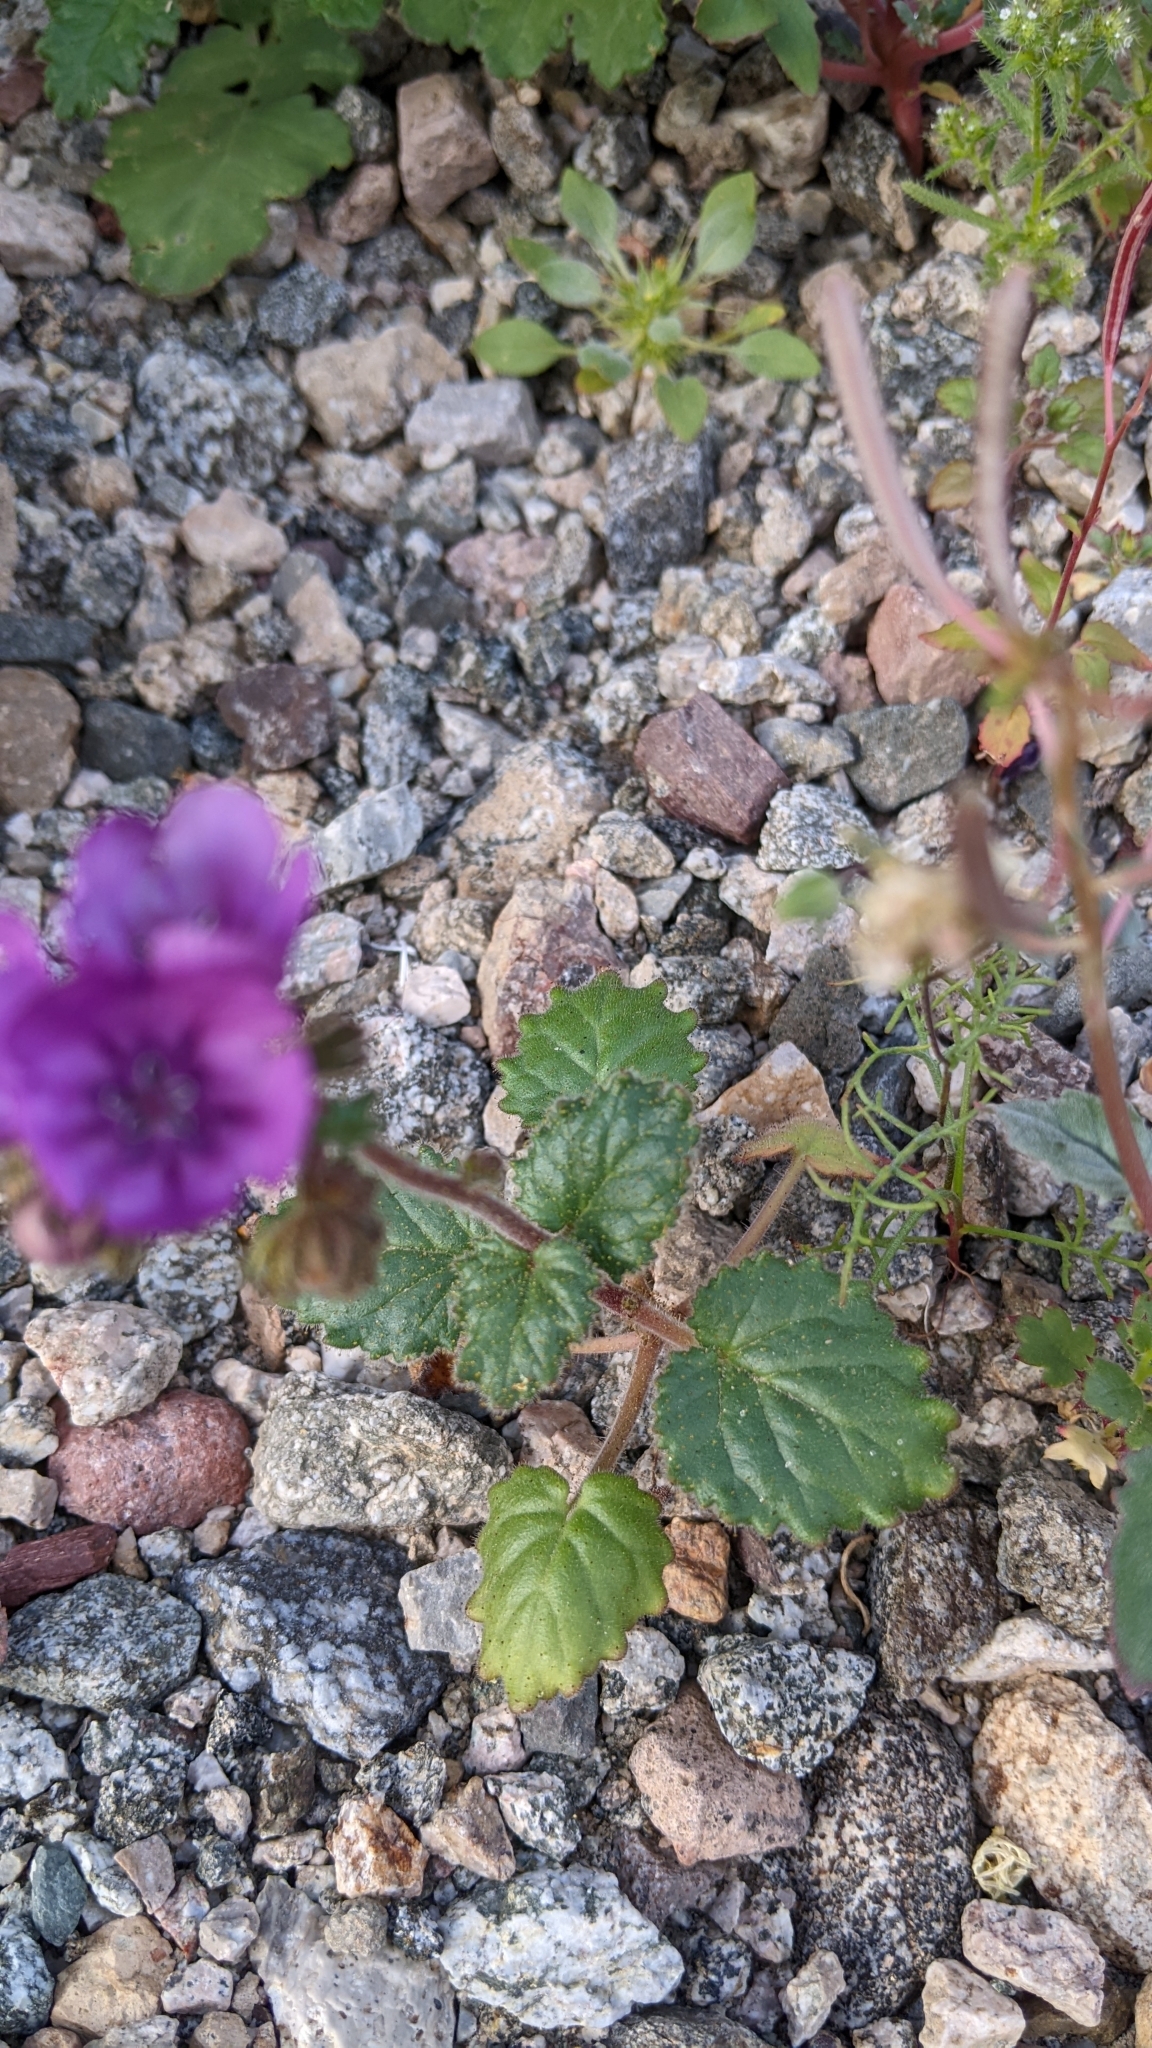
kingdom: Plantae
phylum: Tracheophyta
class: Magnoliopsida
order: Boraginales
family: Hydrophyllaceae
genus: Phacelia
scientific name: Phacelia calthifolia
